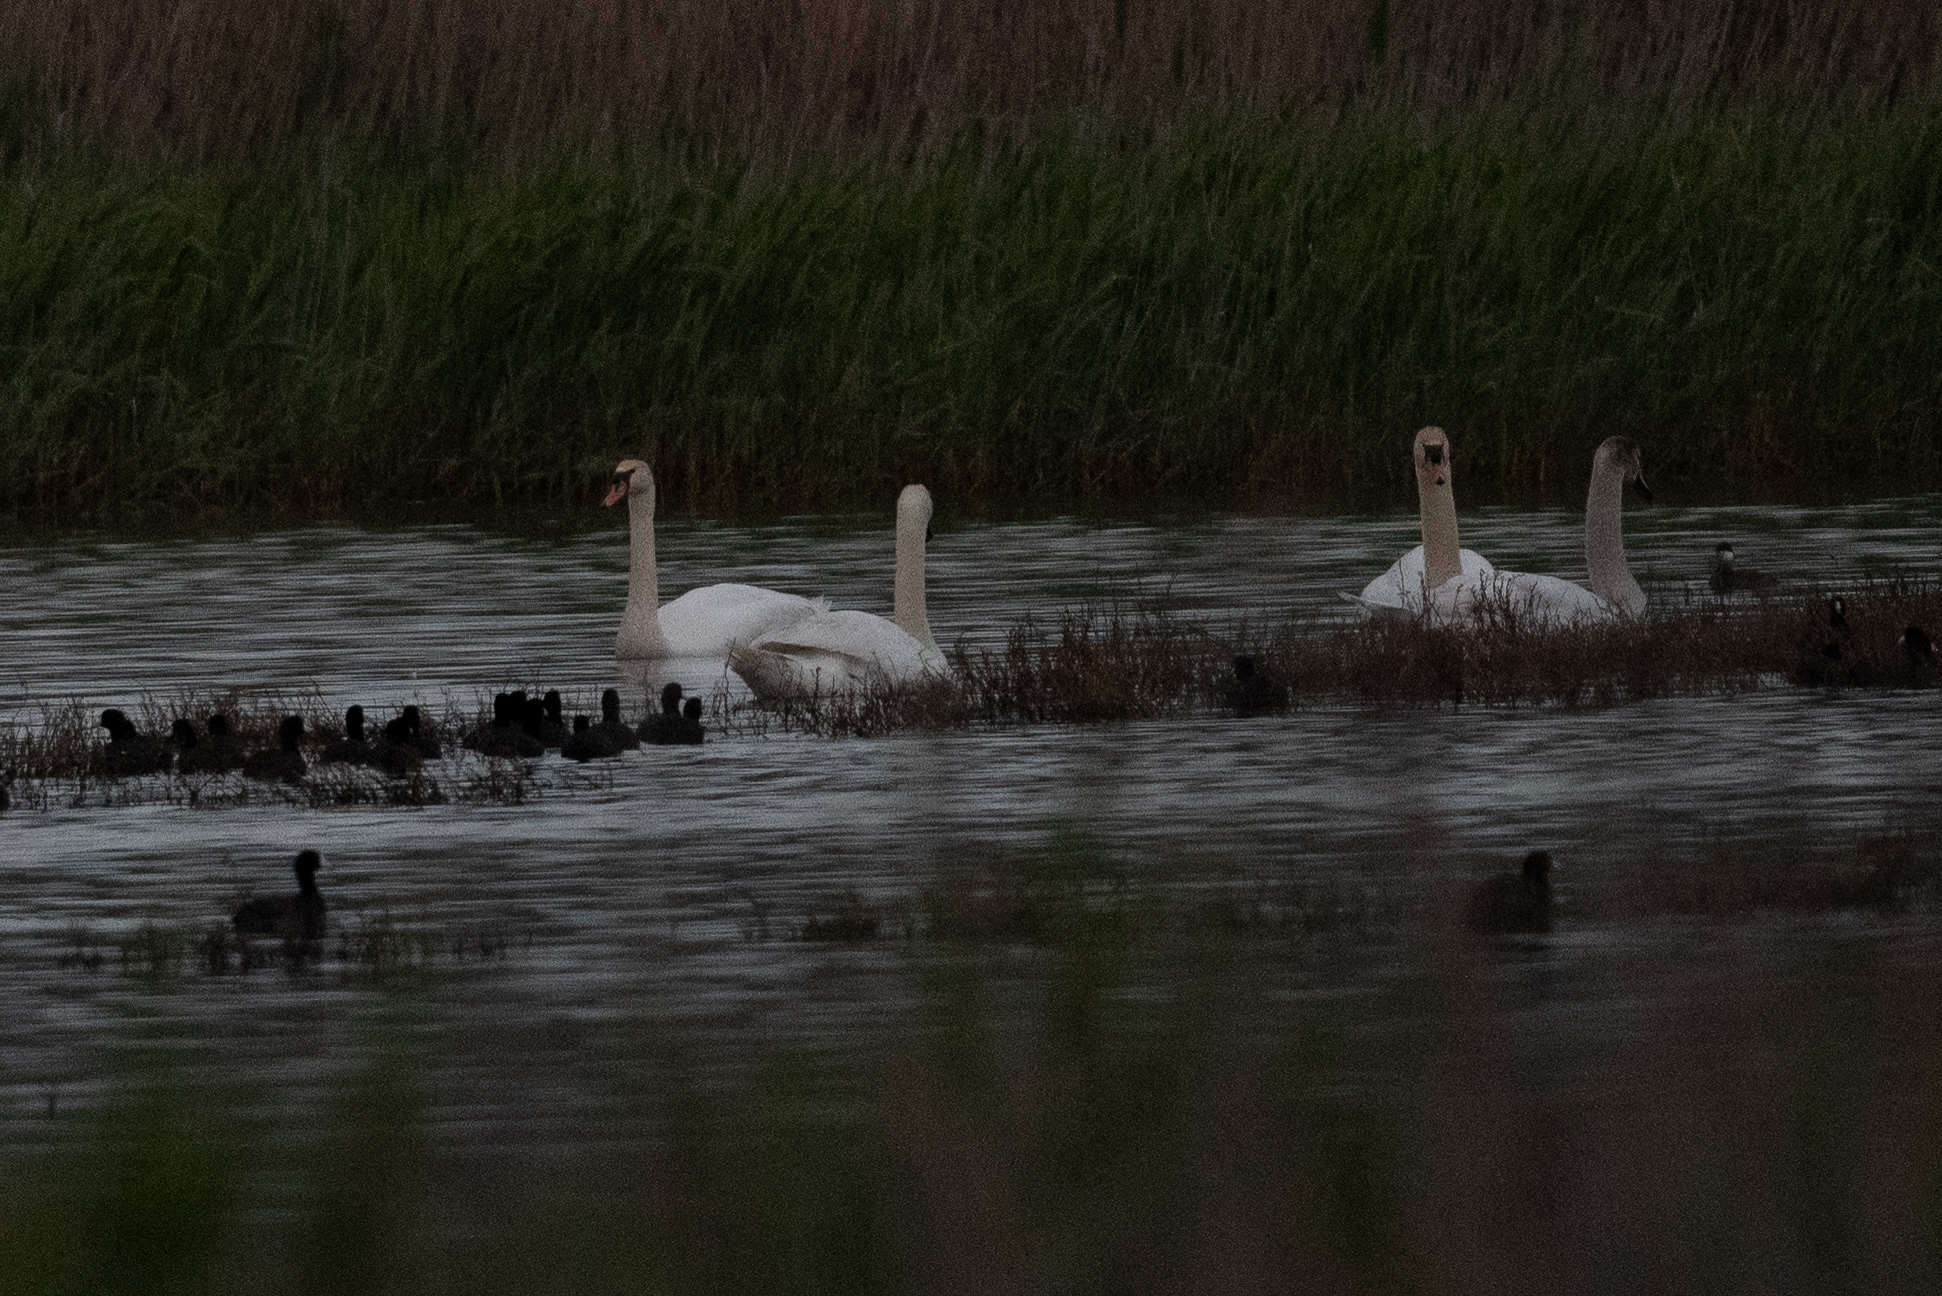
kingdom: Animalia
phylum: Chordata
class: Aves
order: Anseriformes
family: Anatidae
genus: Cygnus
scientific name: Cygnus olor
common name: Mute swan
